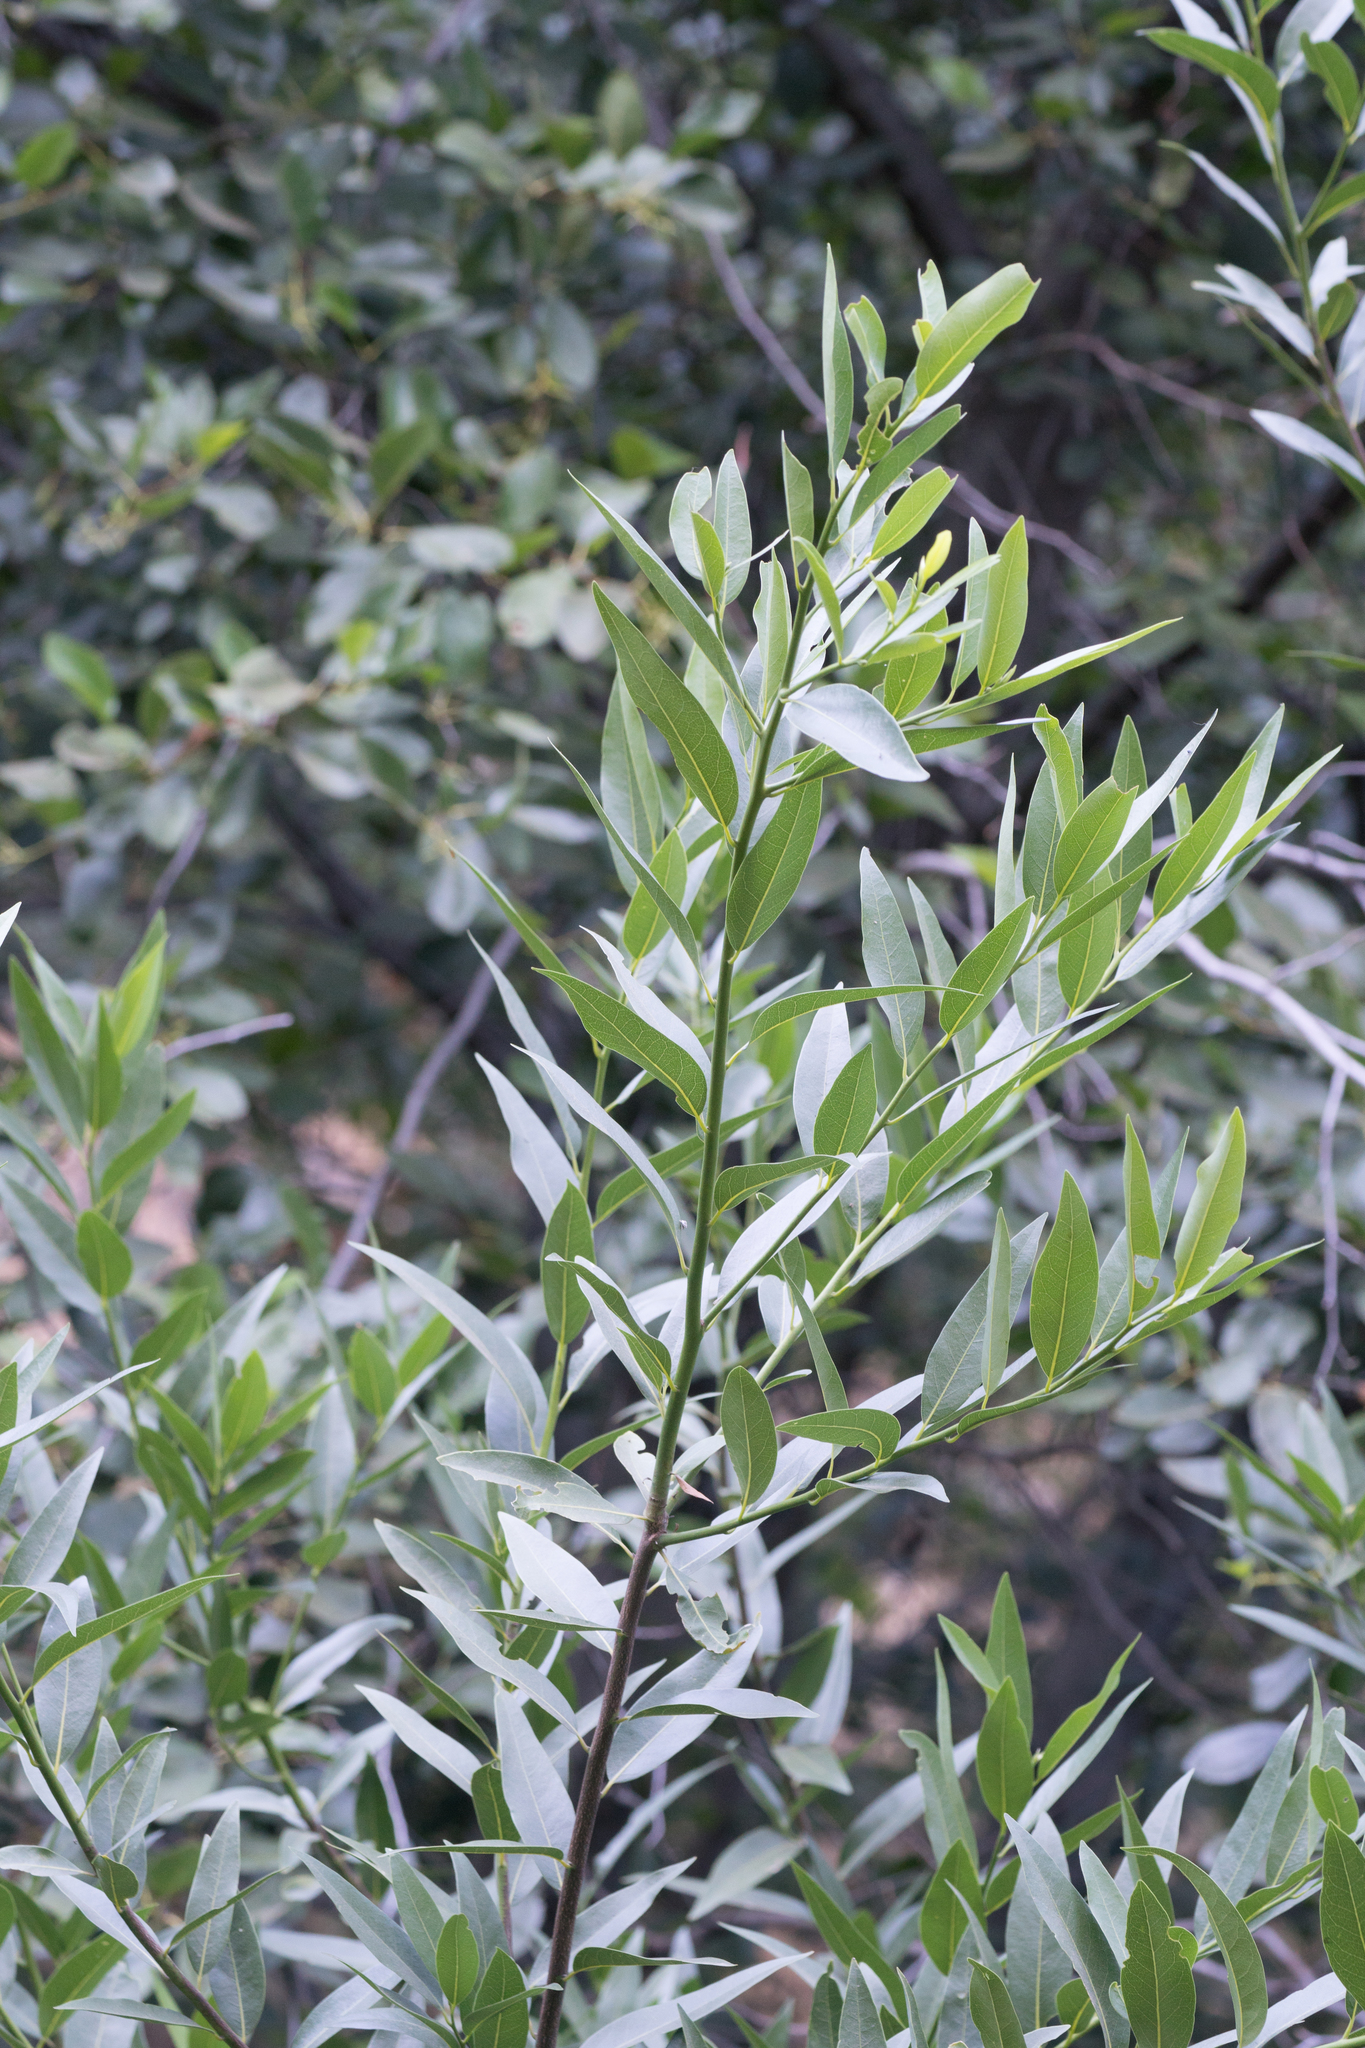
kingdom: Plantae
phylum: Tracheophyta
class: Magnoliopsida
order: Laurales
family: Lauraceae
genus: Umbellularia
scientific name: Umbellularia californica
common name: California bay
